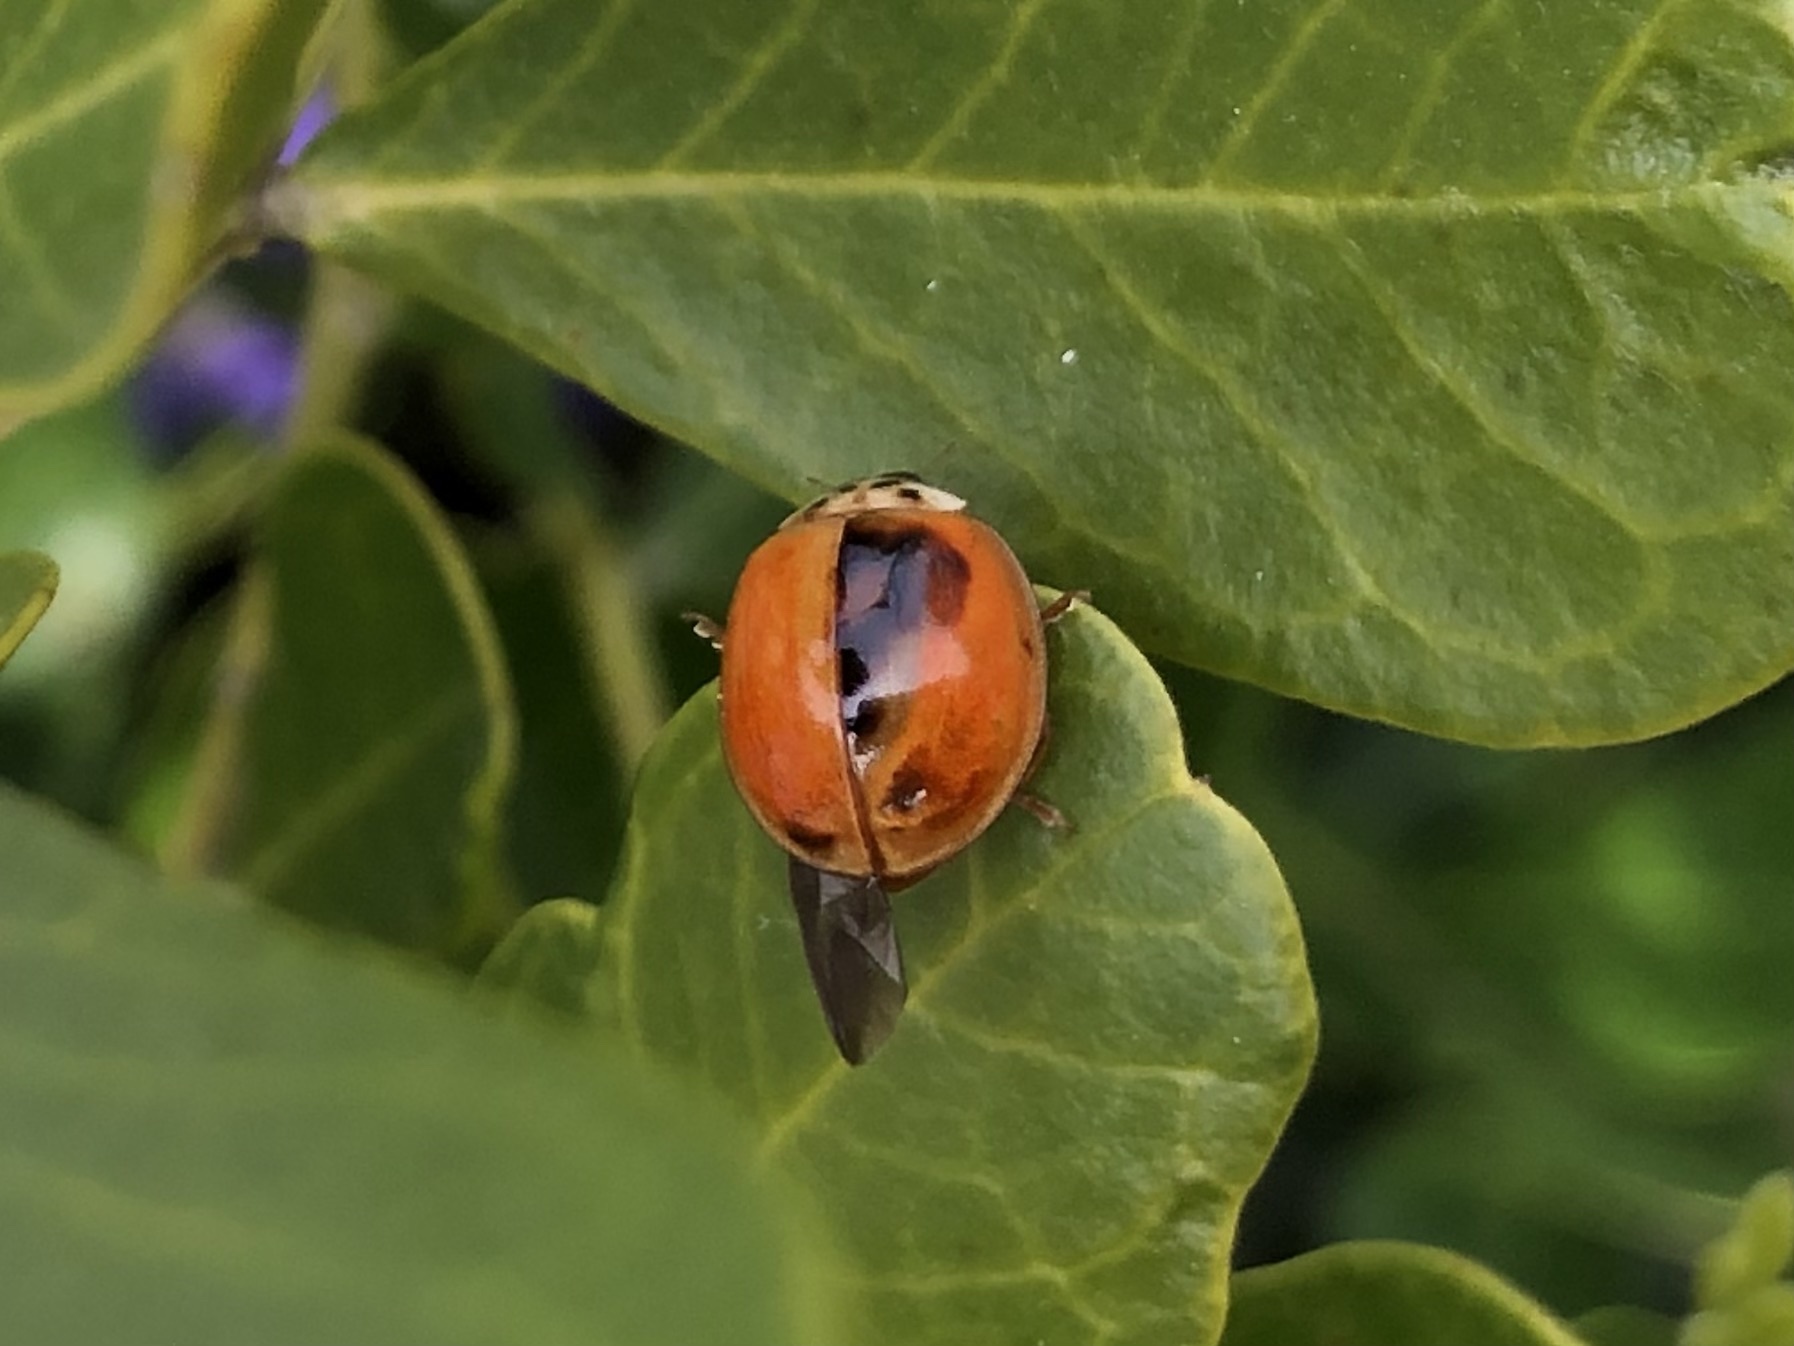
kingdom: Animalia
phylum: Arthropoda
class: Insecta
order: Coleoptera
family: Coccinellidae
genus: Harmonia
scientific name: Harmonia axyridis
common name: Harlequin ladybird
